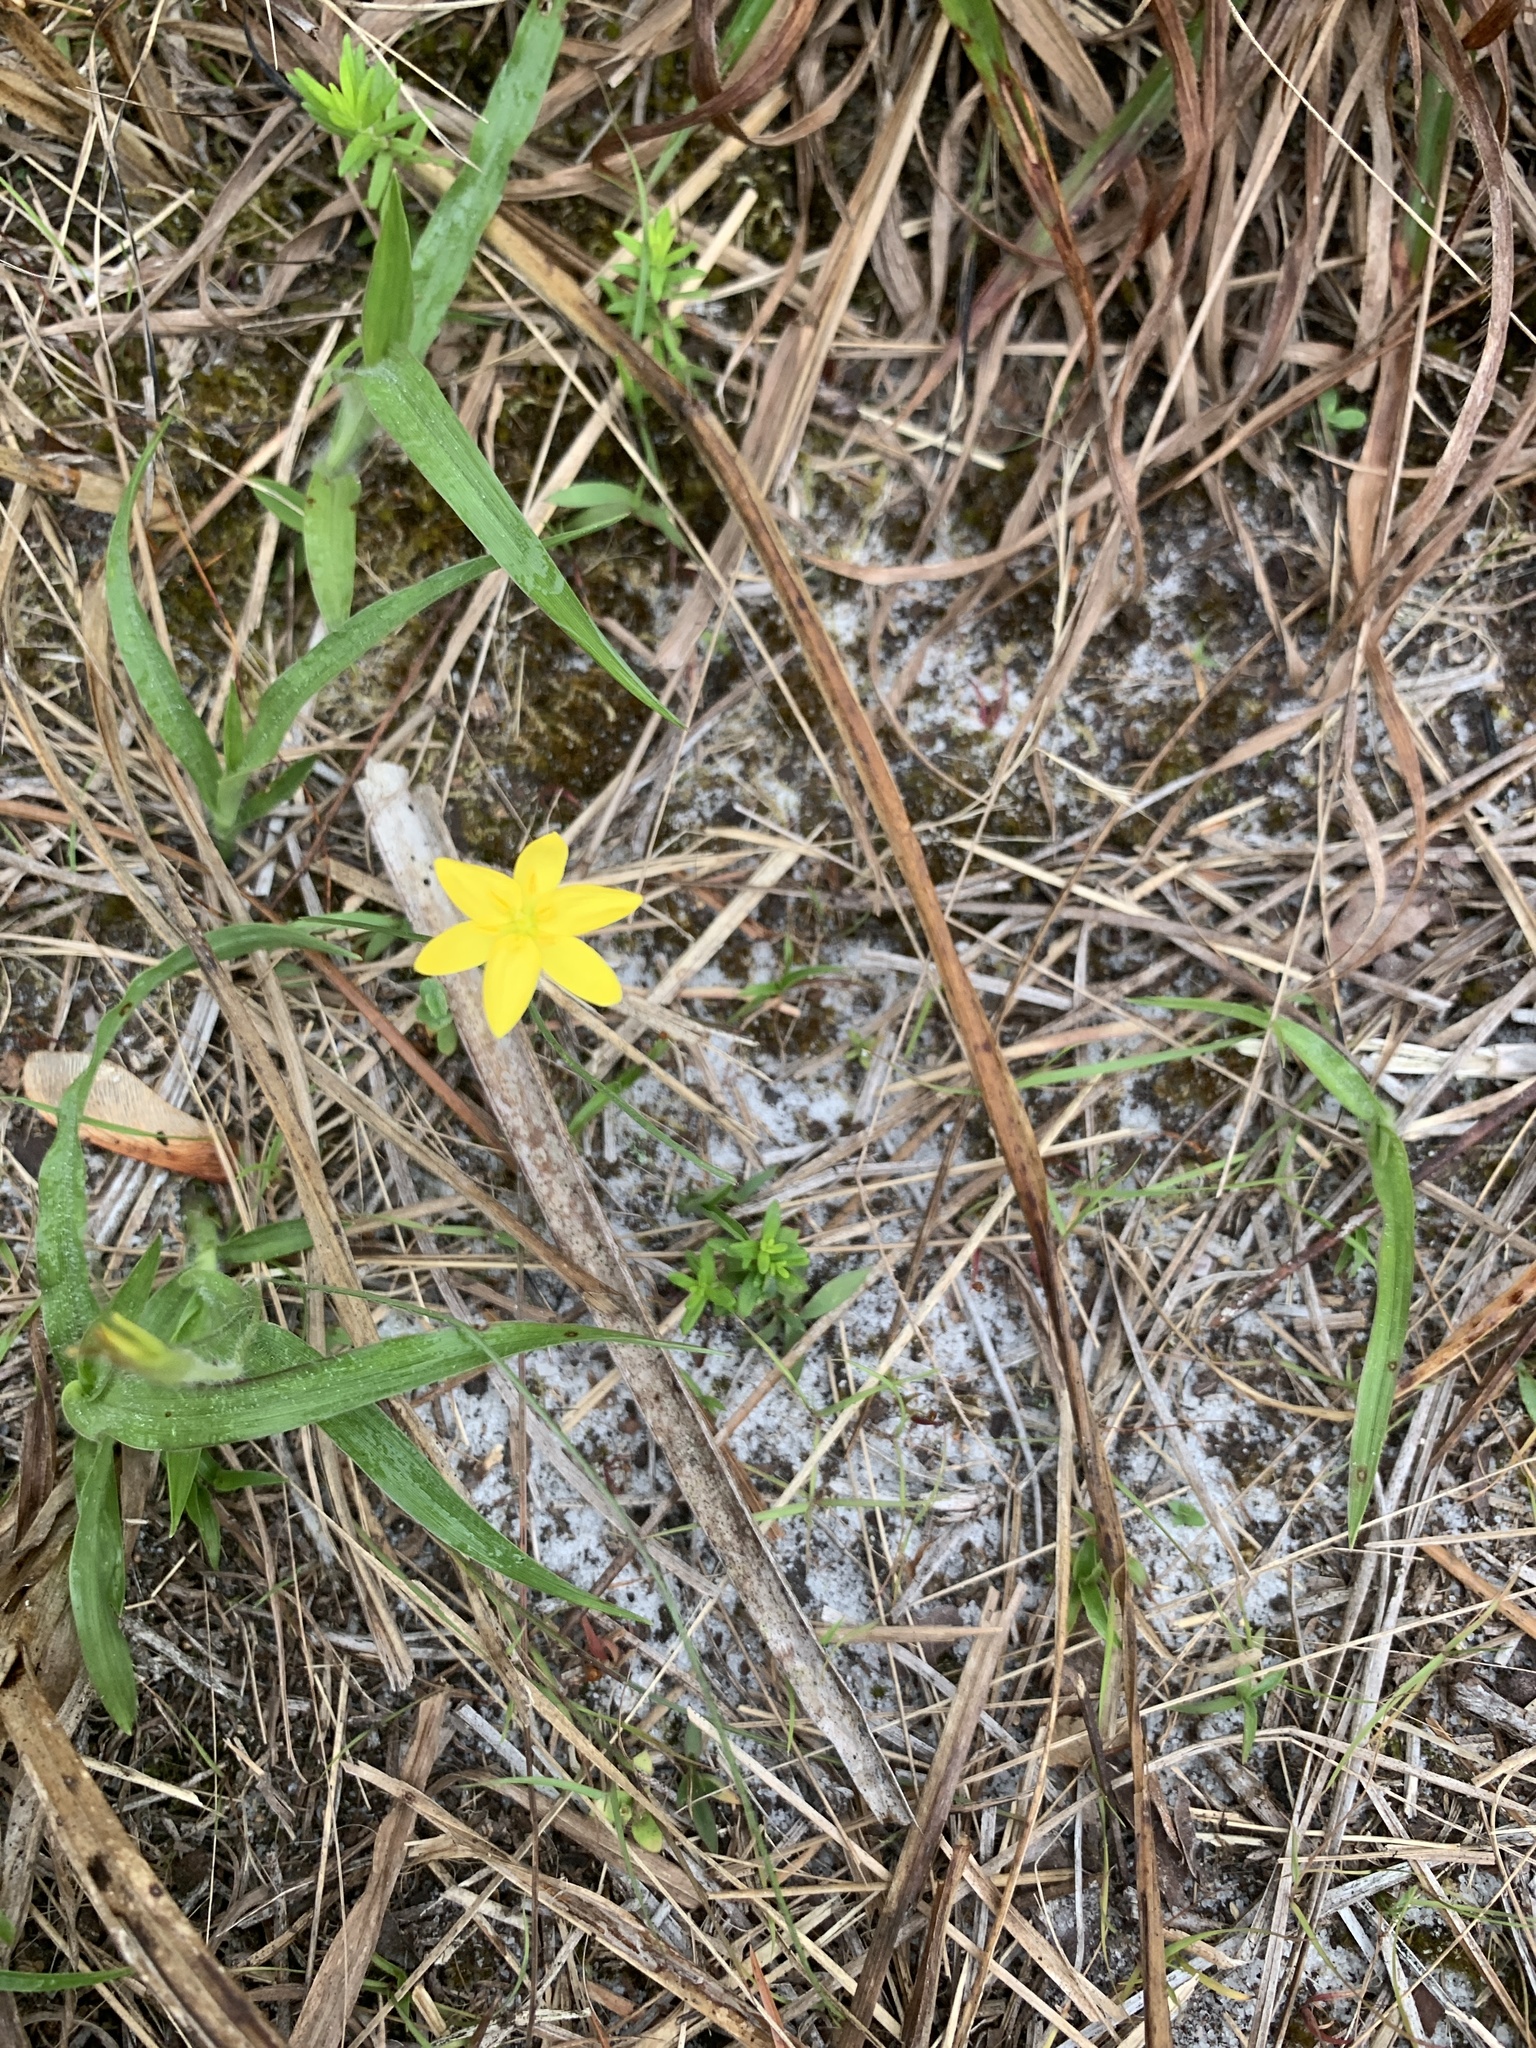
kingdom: Plantae
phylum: Tracheophyta
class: Liliopsida
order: Asparagales
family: Hypoxidaceae
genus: Hypoxis
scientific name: Hypoxis juncea
